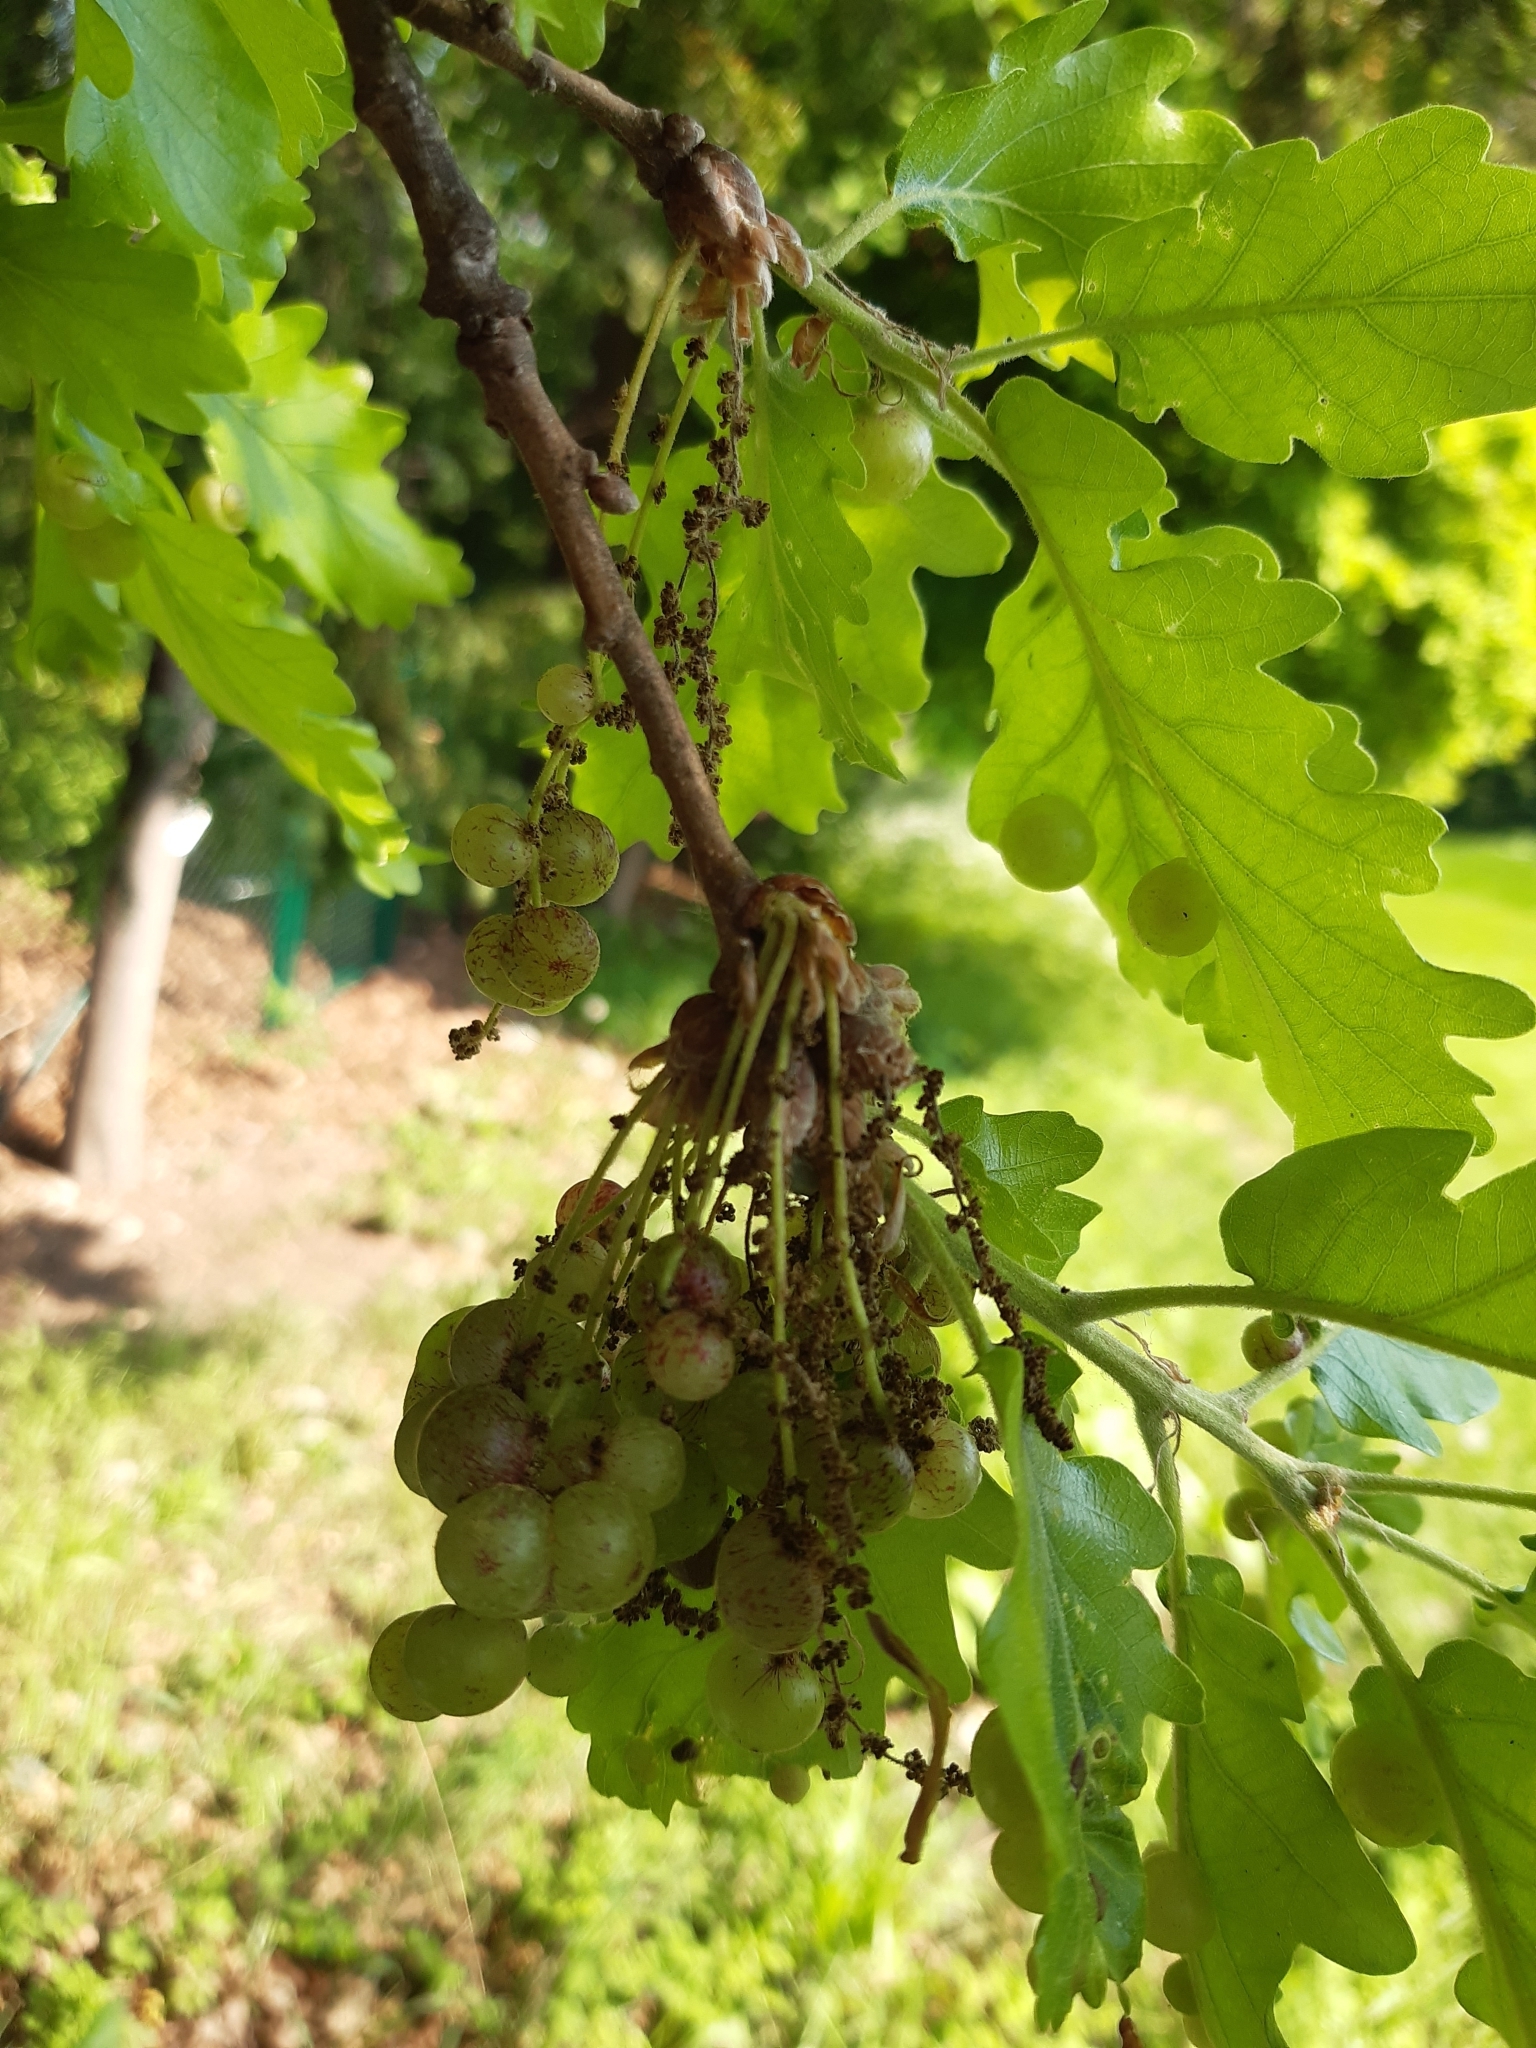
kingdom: Animalia
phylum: Arthropoda
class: Insecta
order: Hymenoptera
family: Cynipidae
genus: Neuroterus
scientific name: Neuroterus quercusbaccarum
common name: Common spangle gall
